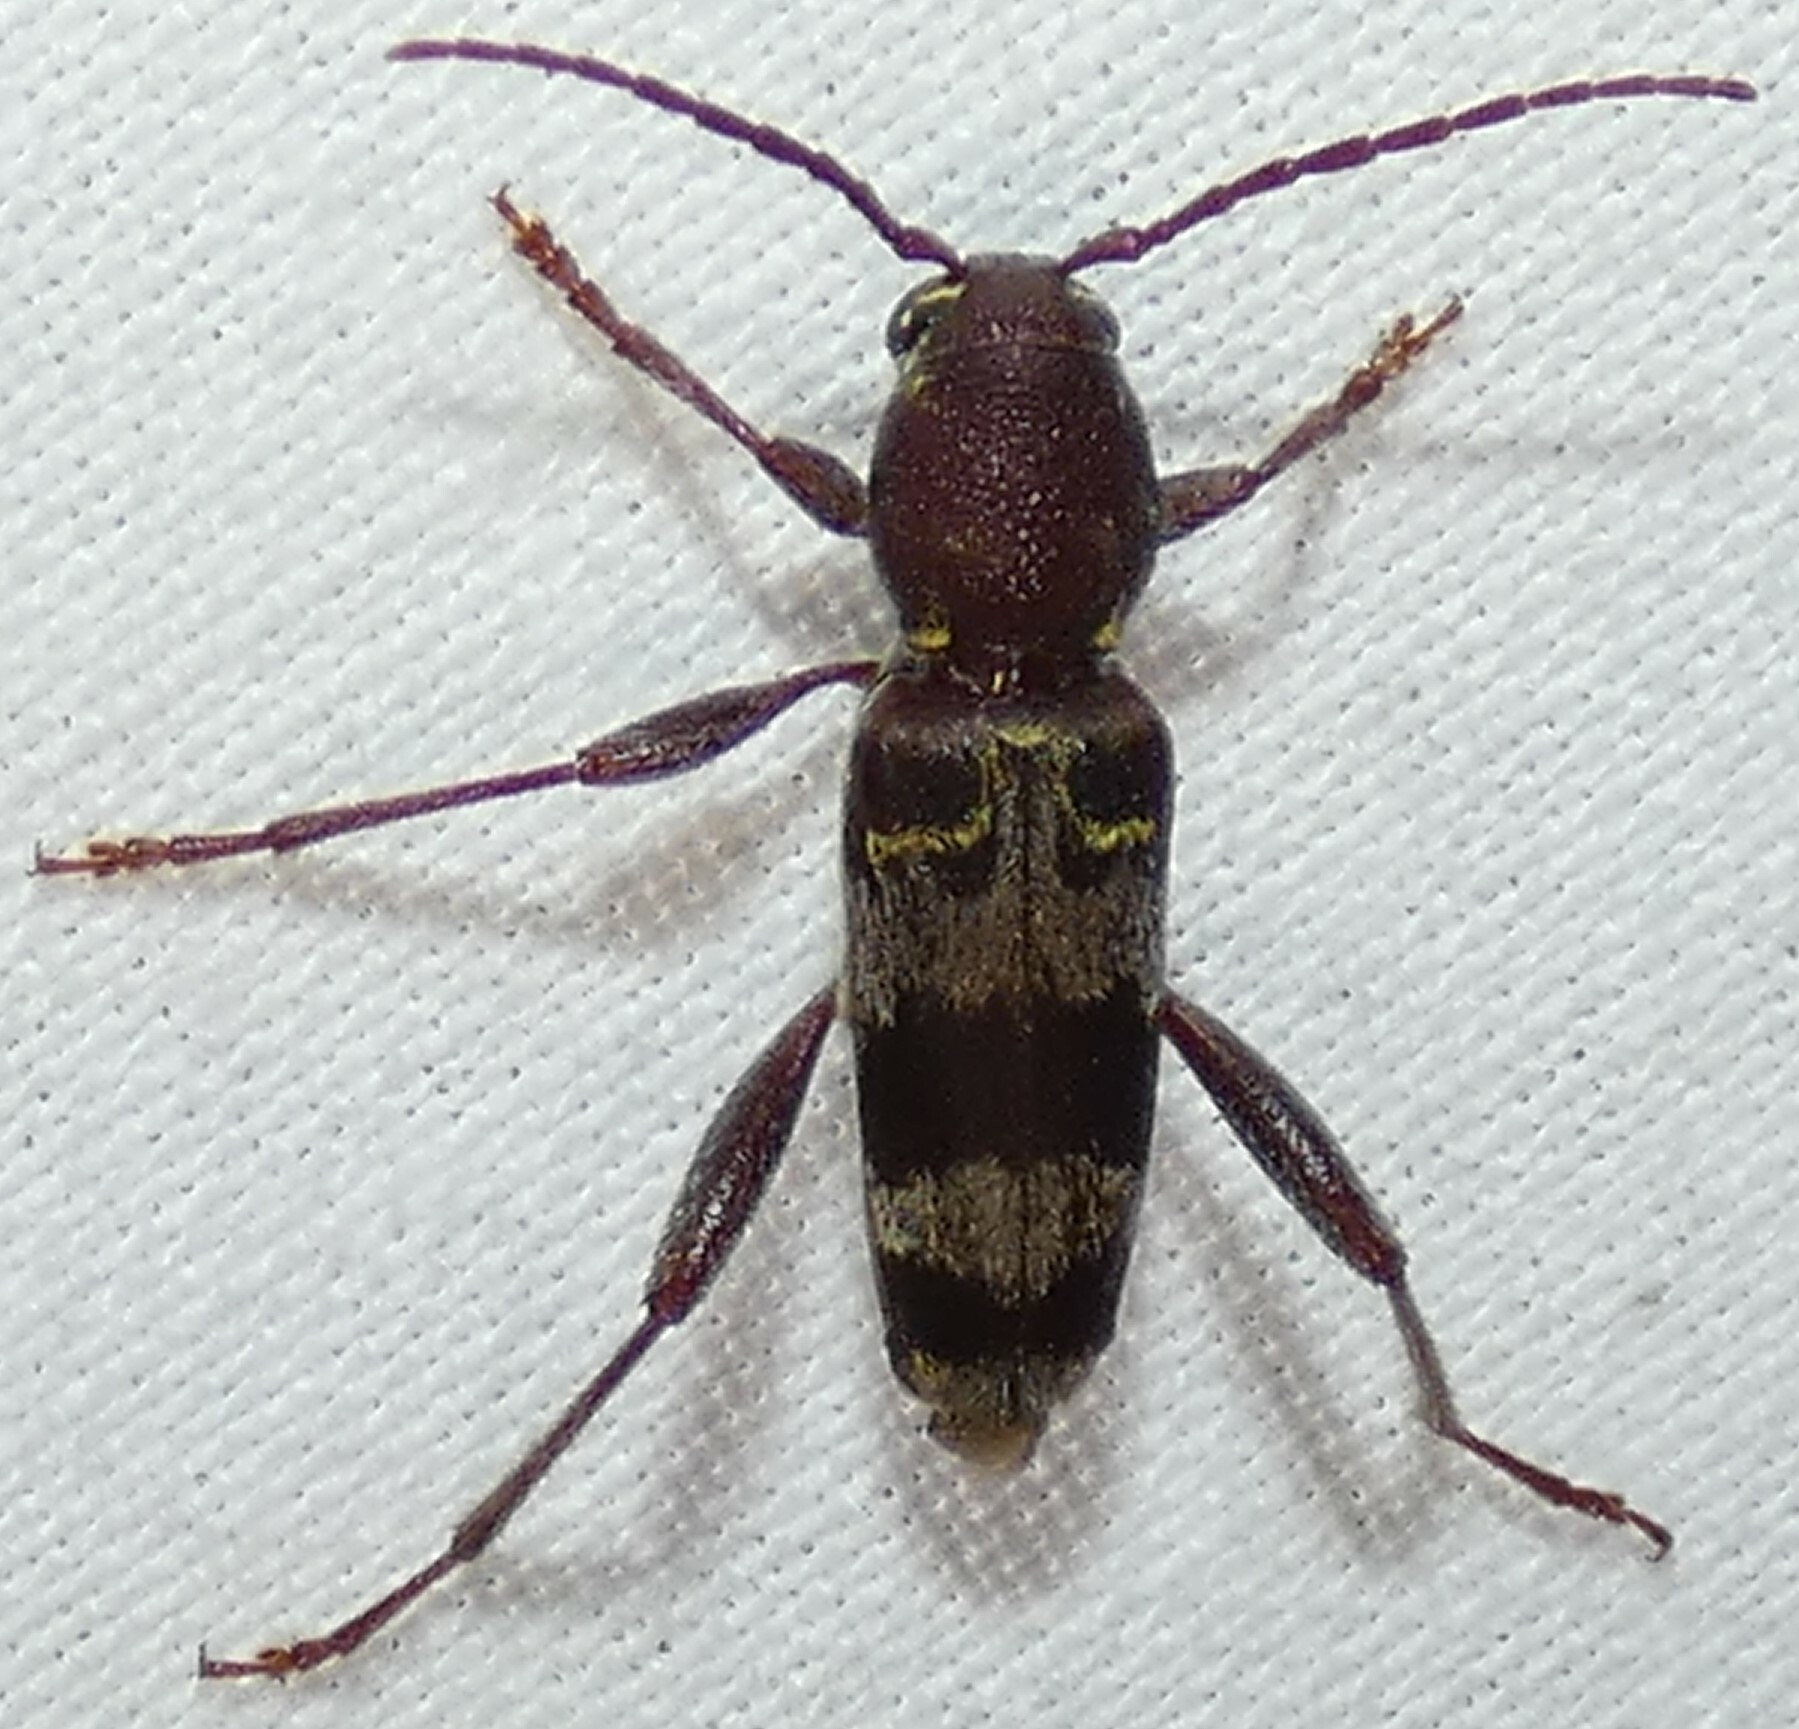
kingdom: Animalia
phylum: Arthropoda
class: Insecta
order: Coleoptera
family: Cerambycidae
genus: Xylotrechus
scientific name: Xylotrechus colonus
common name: Long-horned beetle
